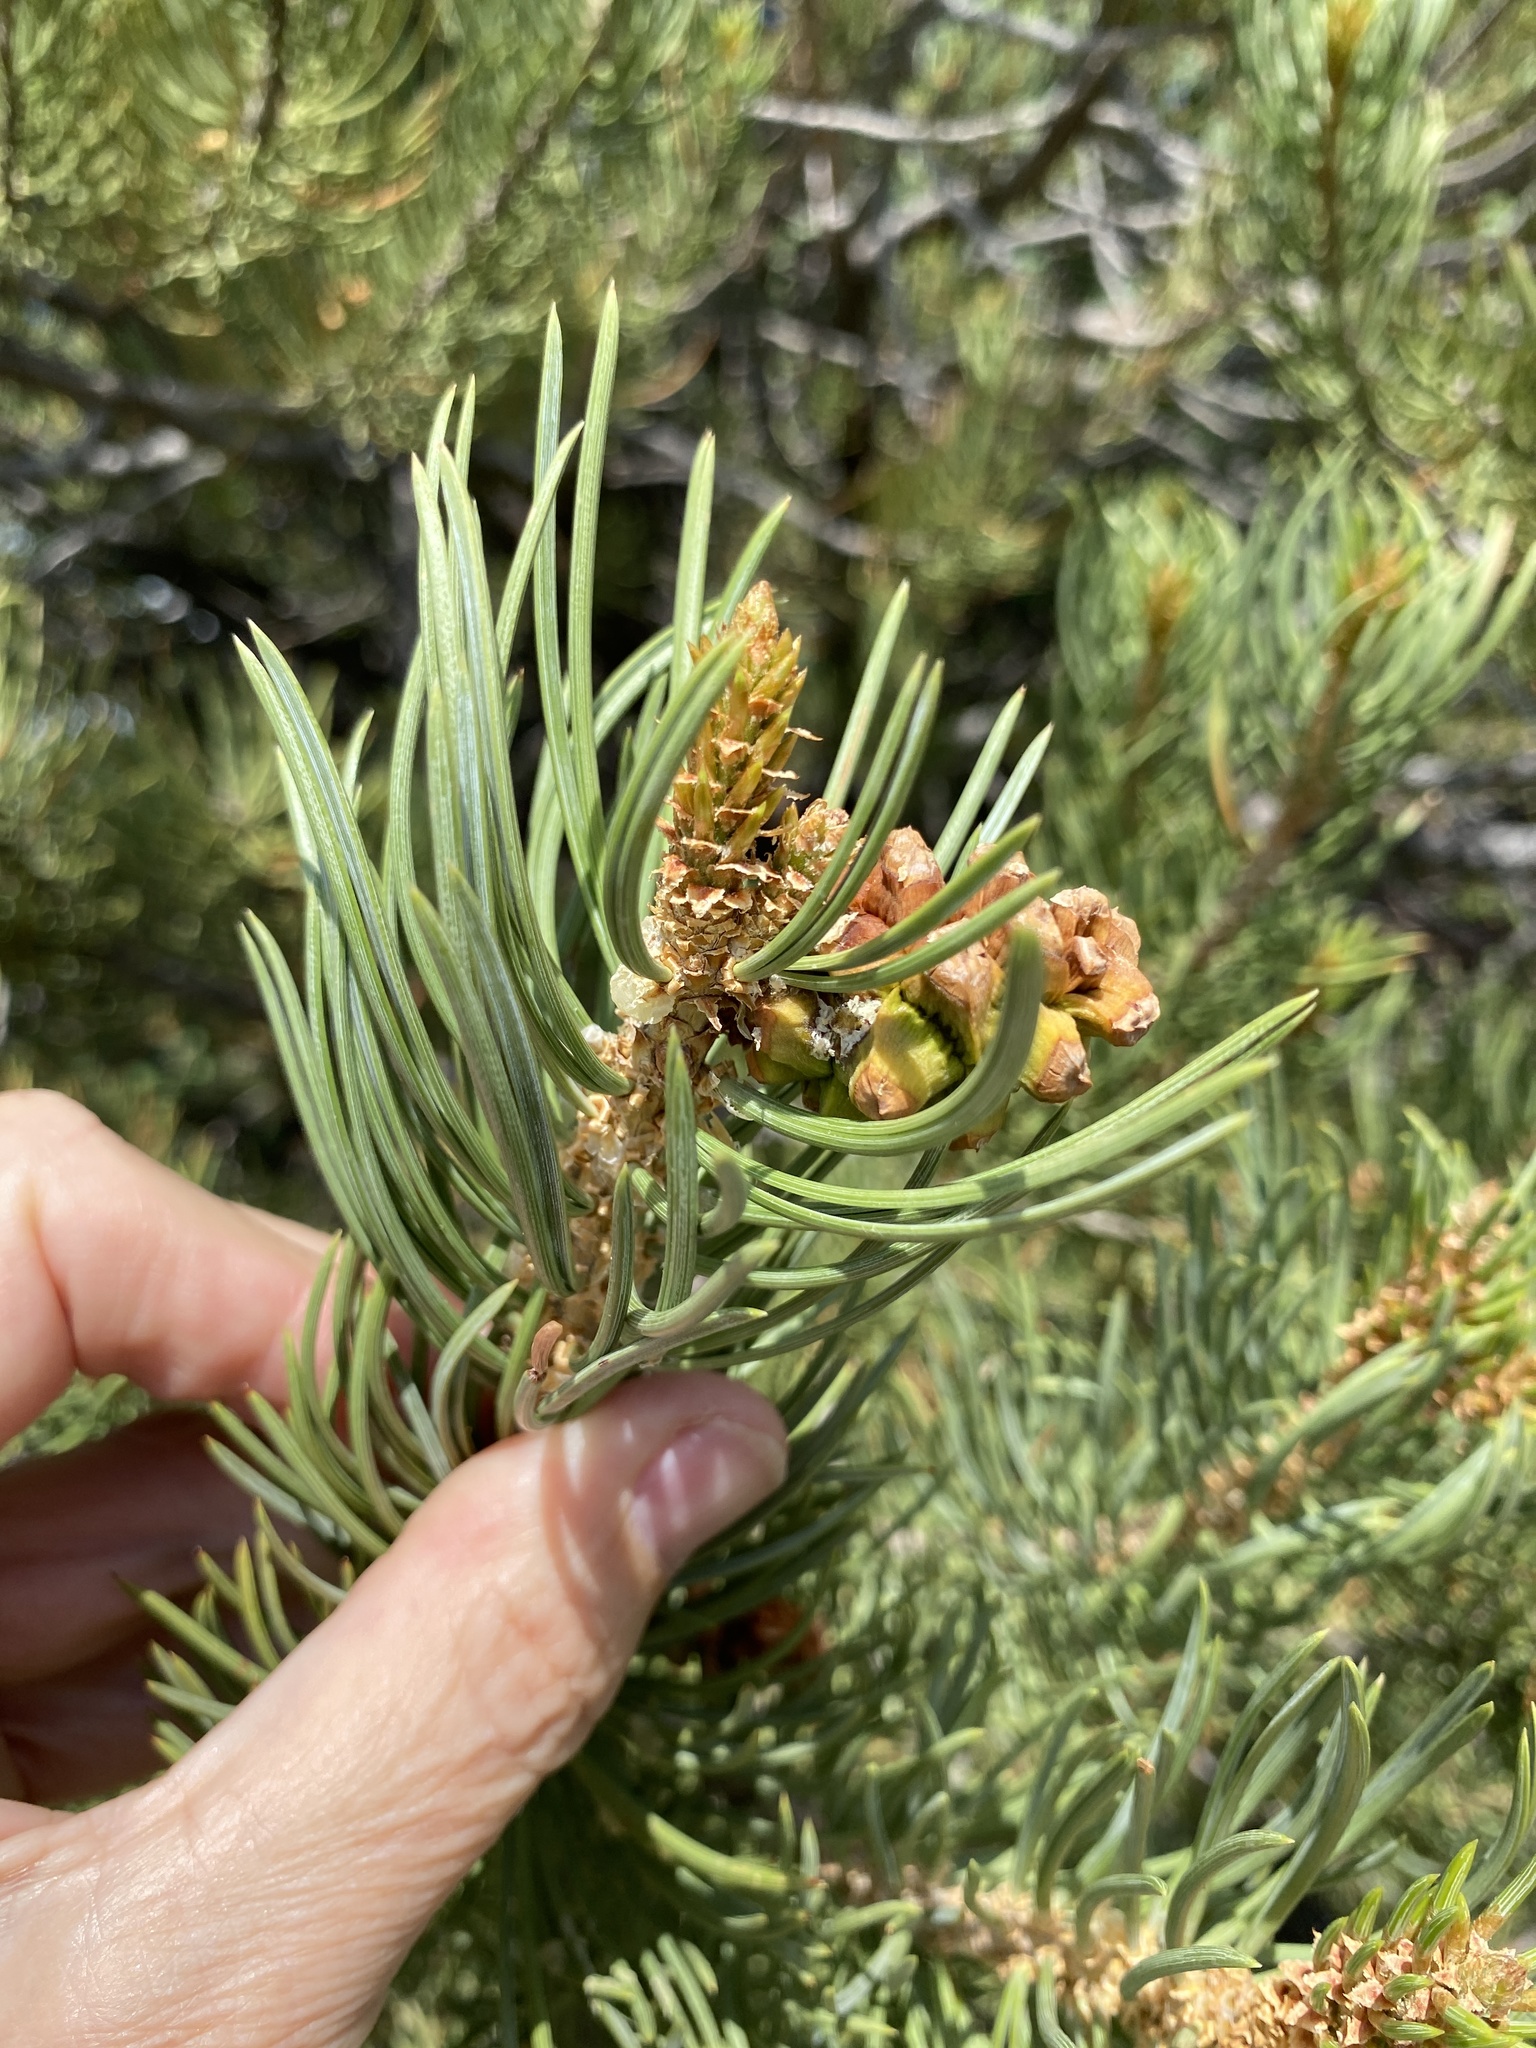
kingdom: Plantae
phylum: Tracheophyta
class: Pinopsida
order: Pinales
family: Pinaceae
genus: Pinus
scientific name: Pinus edulis
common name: Colorado pinyon
